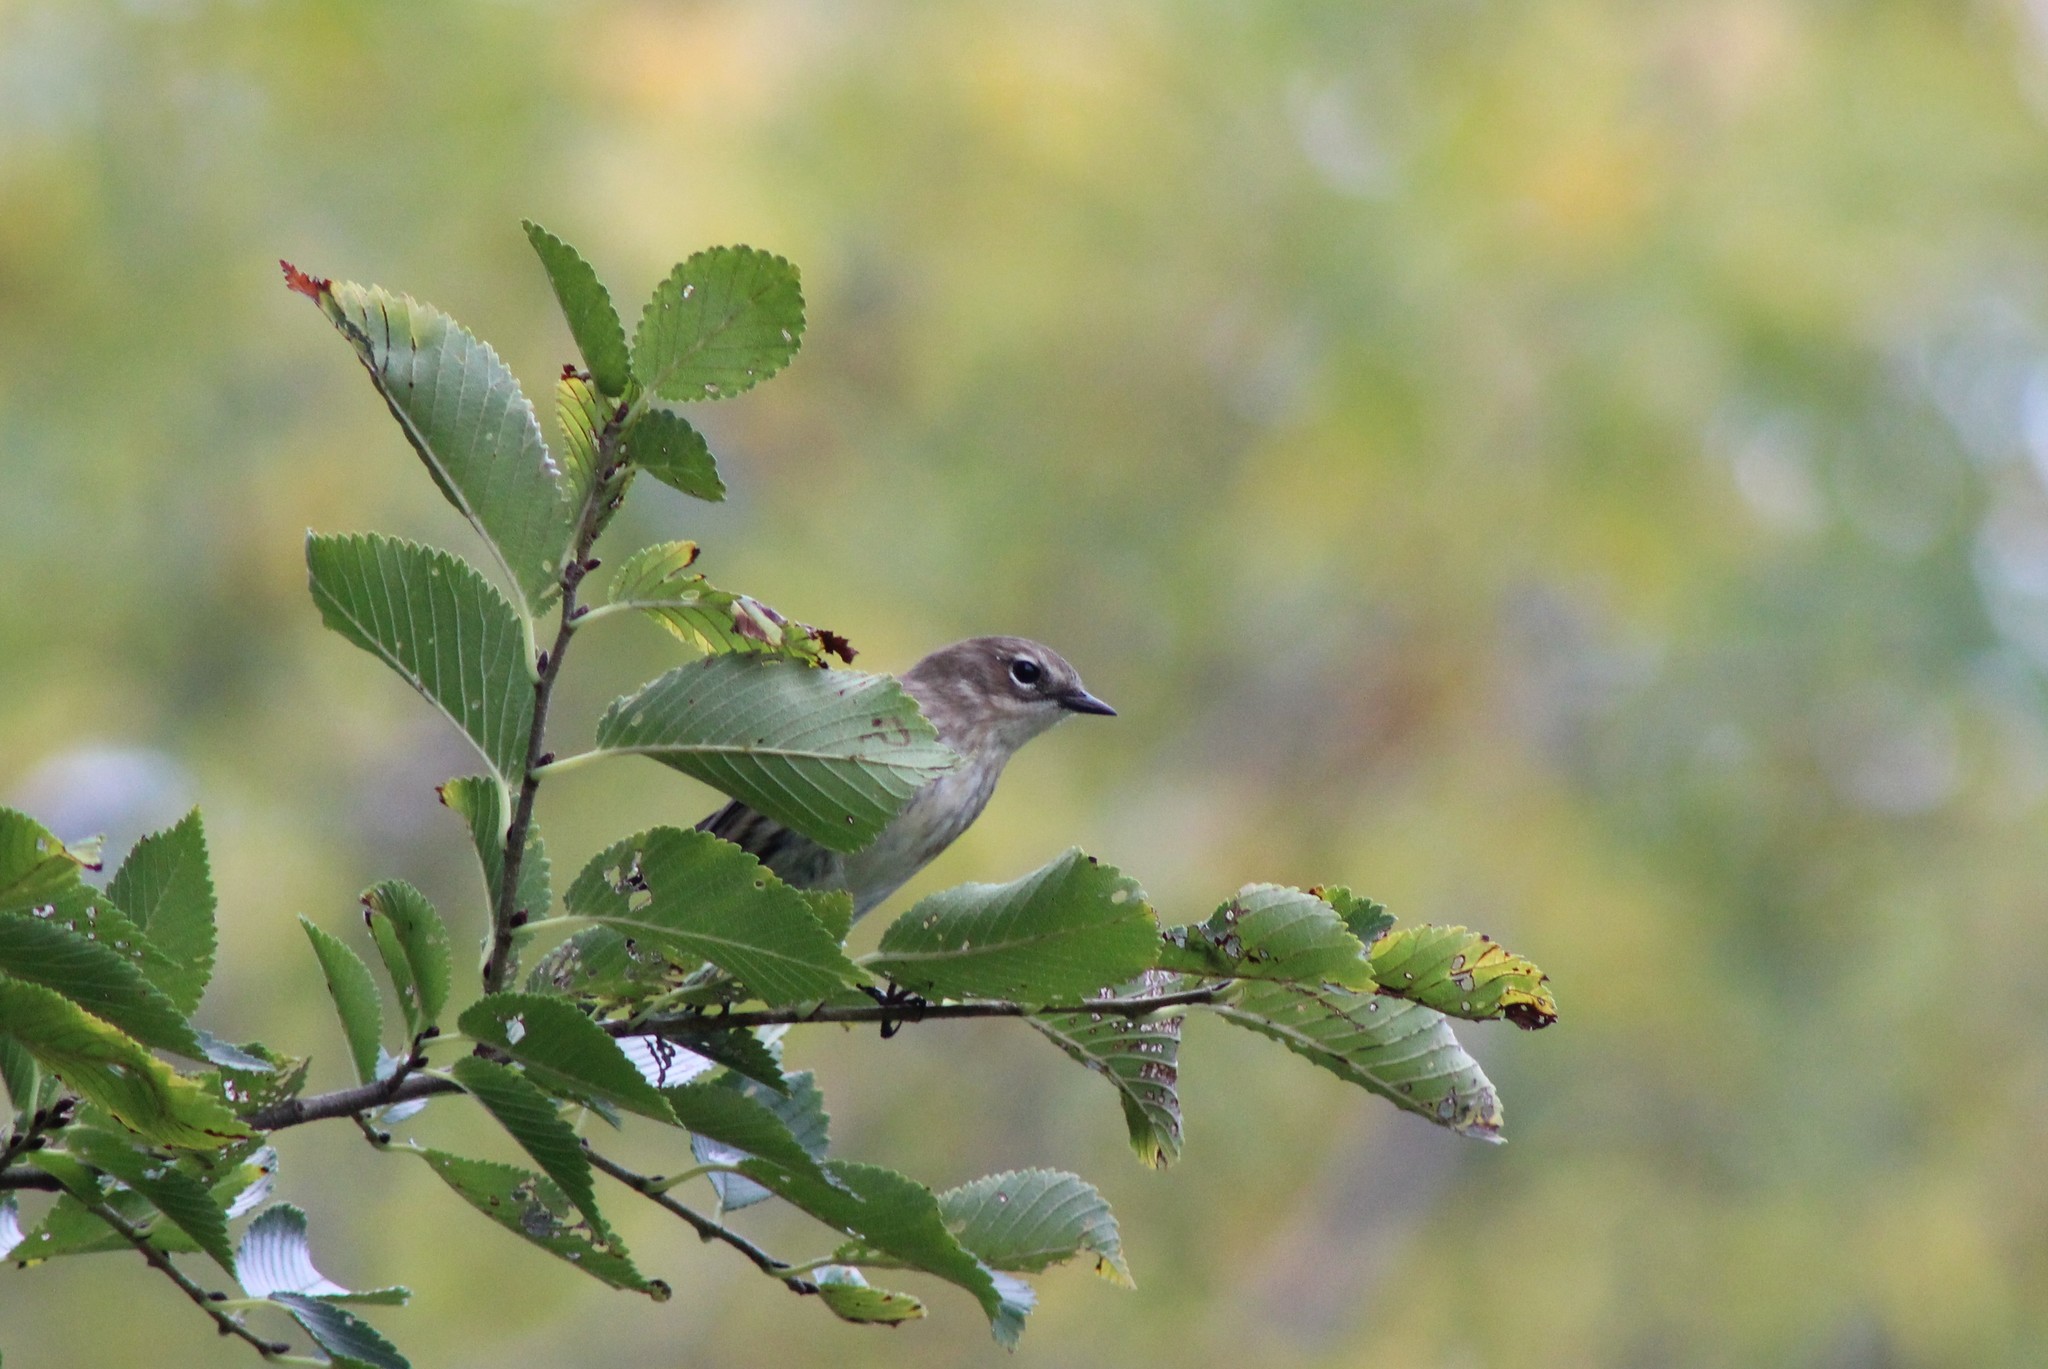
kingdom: Animalia
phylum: Chordata
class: Aves
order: Passeriformes
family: Parulidae
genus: Setophaga
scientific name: Setophaga coronata
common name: Myrtle warbler
